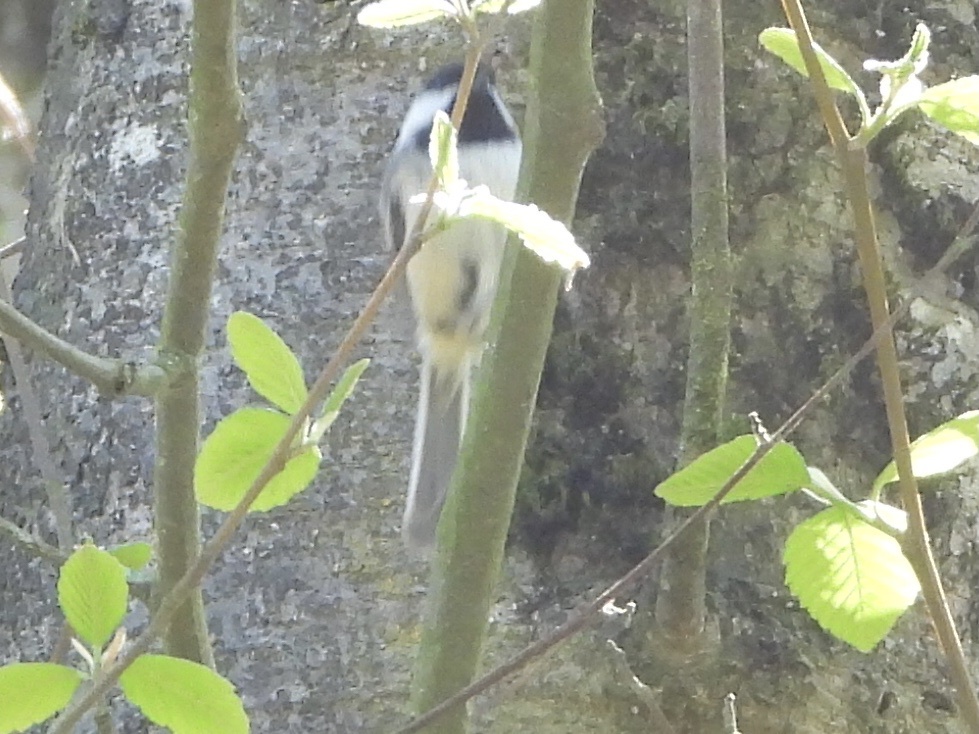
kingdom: Animalia
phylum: Chordata
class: Aves
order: Passeriformes
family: Paridae
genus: Poecile
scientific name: Poecile atricapillus
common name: Black-capped chickadee
